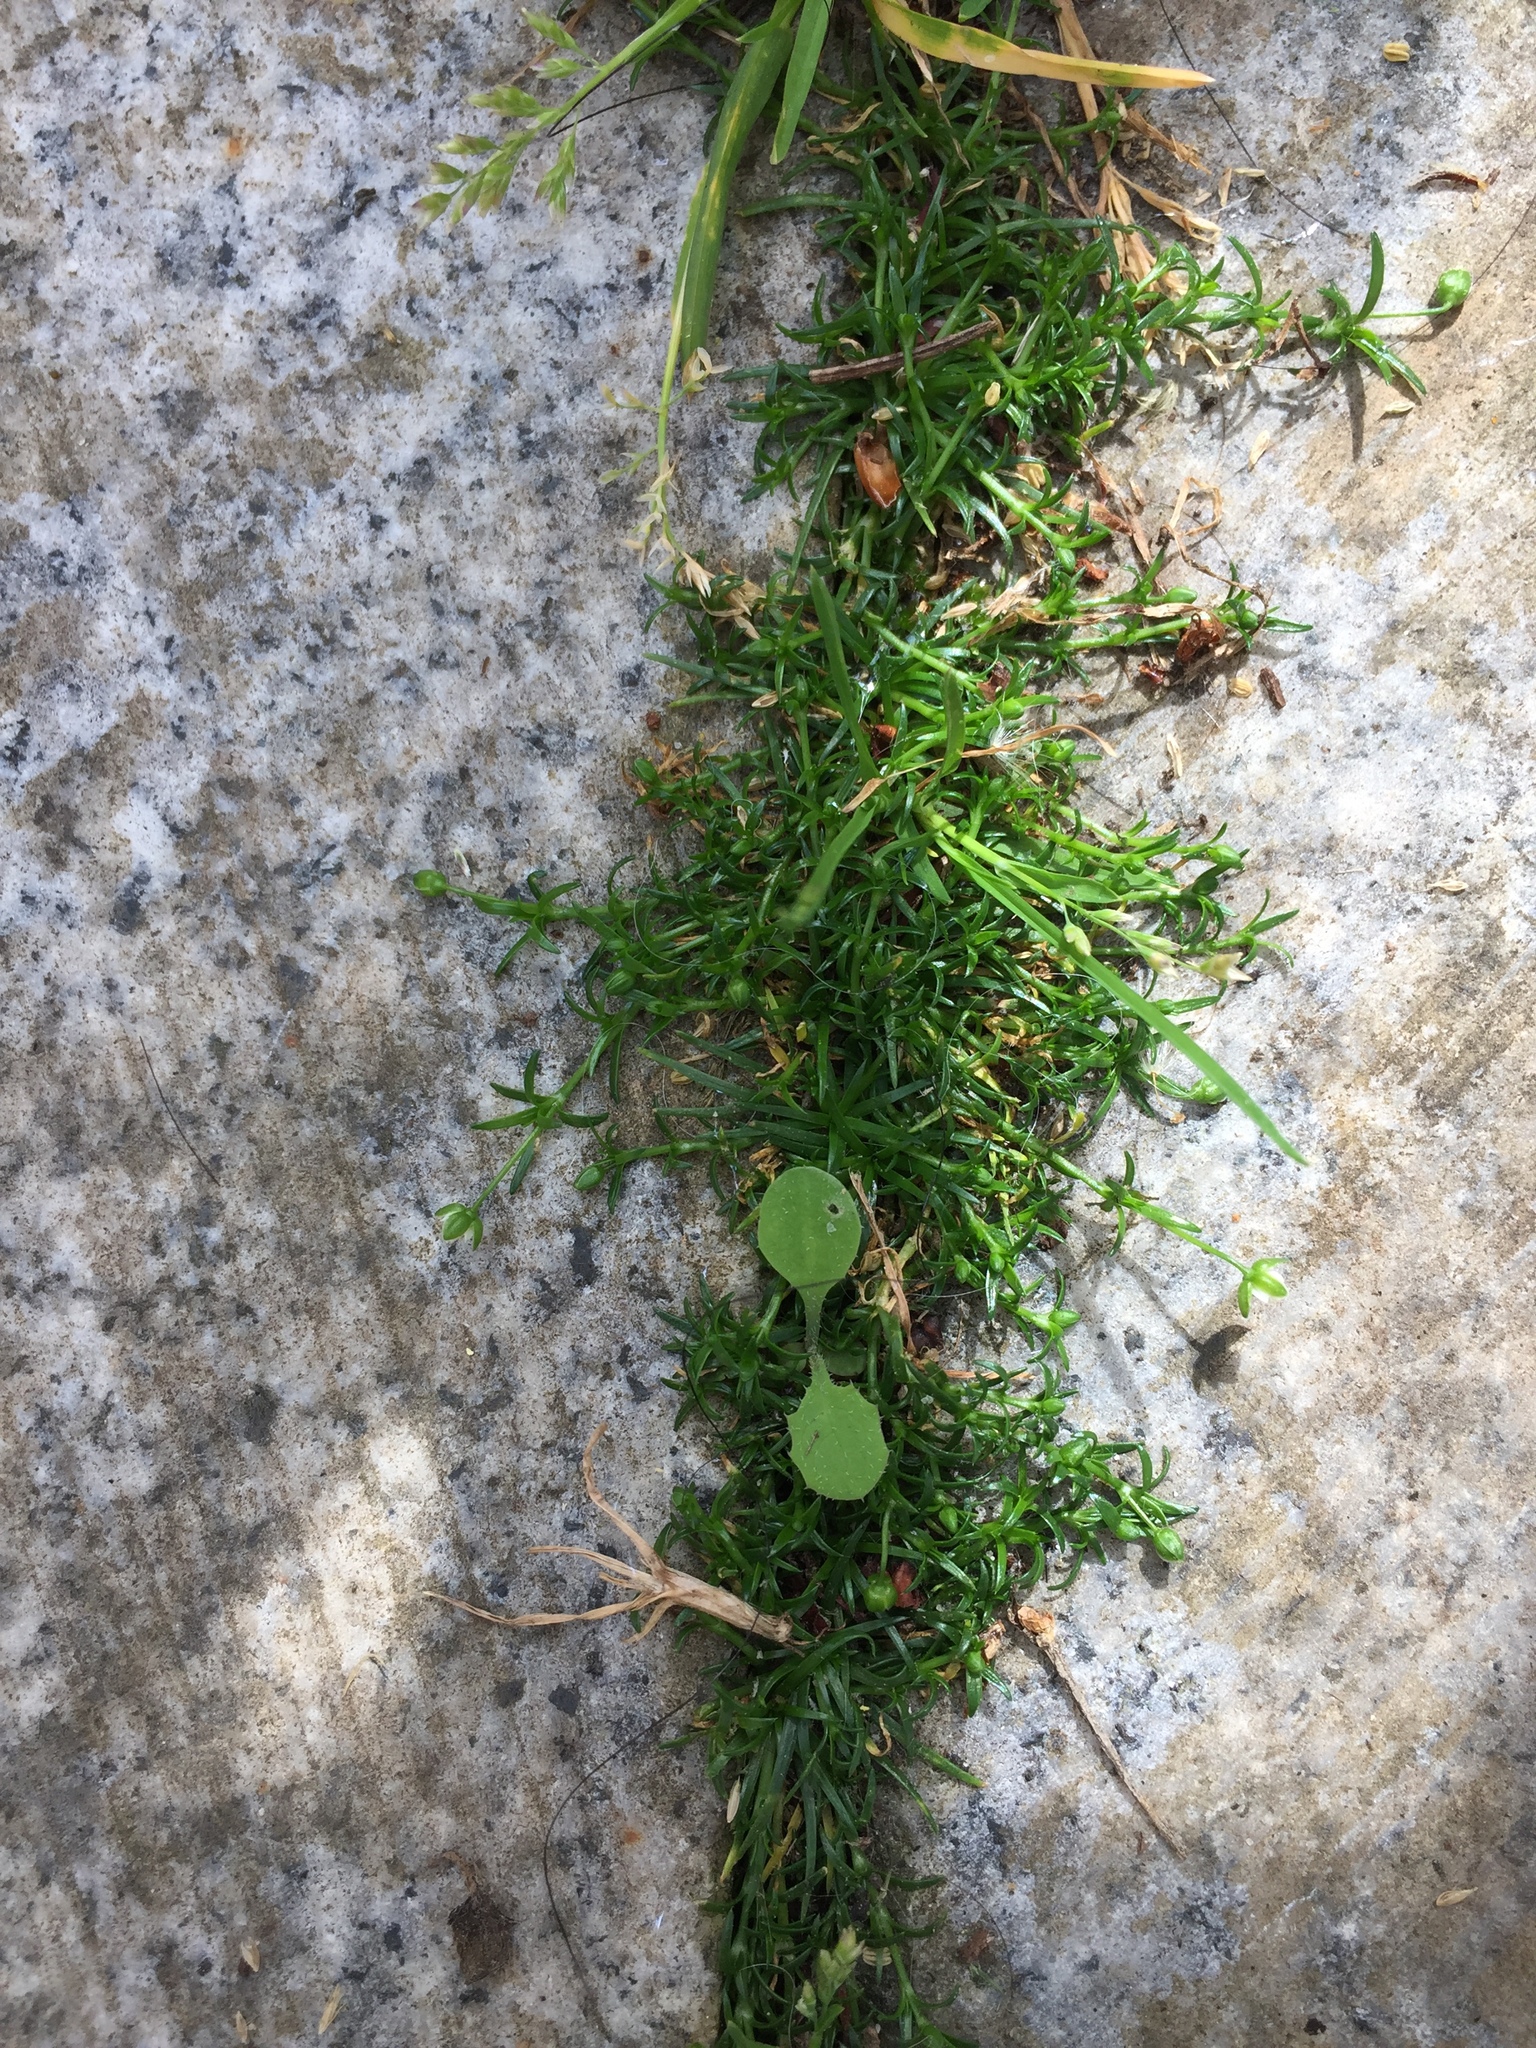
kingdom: Plantae
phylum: Tracheophyta
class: Magnoliopsida
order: Caryophyllales
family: Caryophyllaceae
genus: Sagina
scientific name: Sagina procumbens
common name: Procumbent pearlwort
